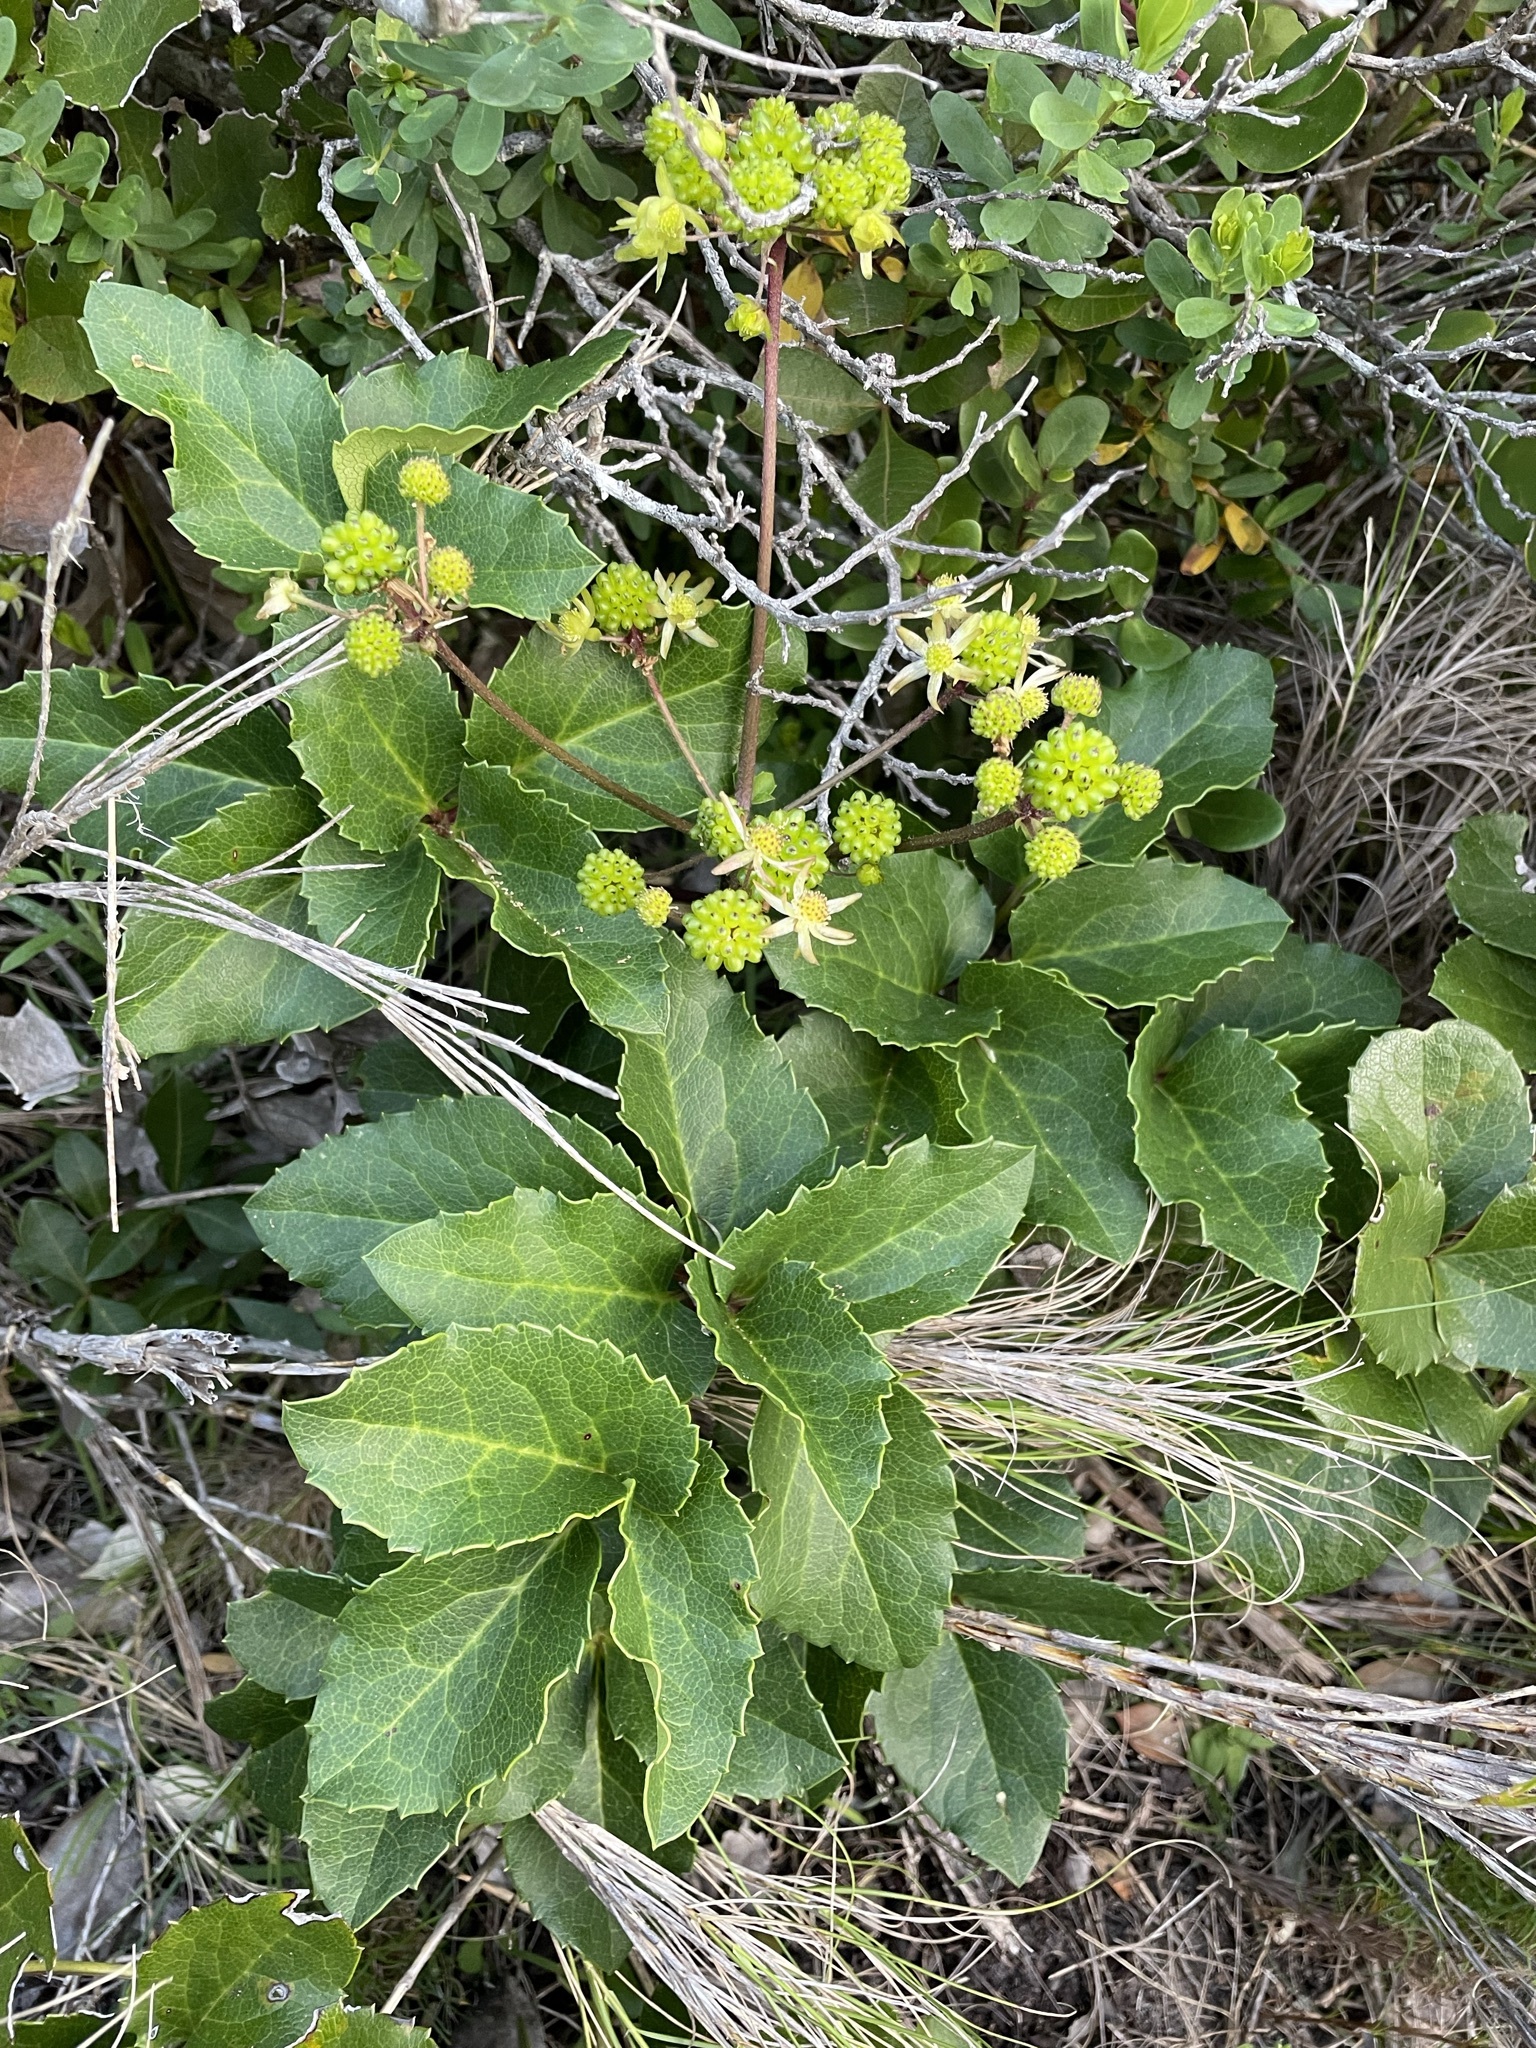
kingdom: Plantae
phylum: Tracheophyta
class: Magnoliopsida
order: Ranunculales
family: Ranunculaceae
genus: Knowltonia
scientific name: Knowltonia vesicatoria
